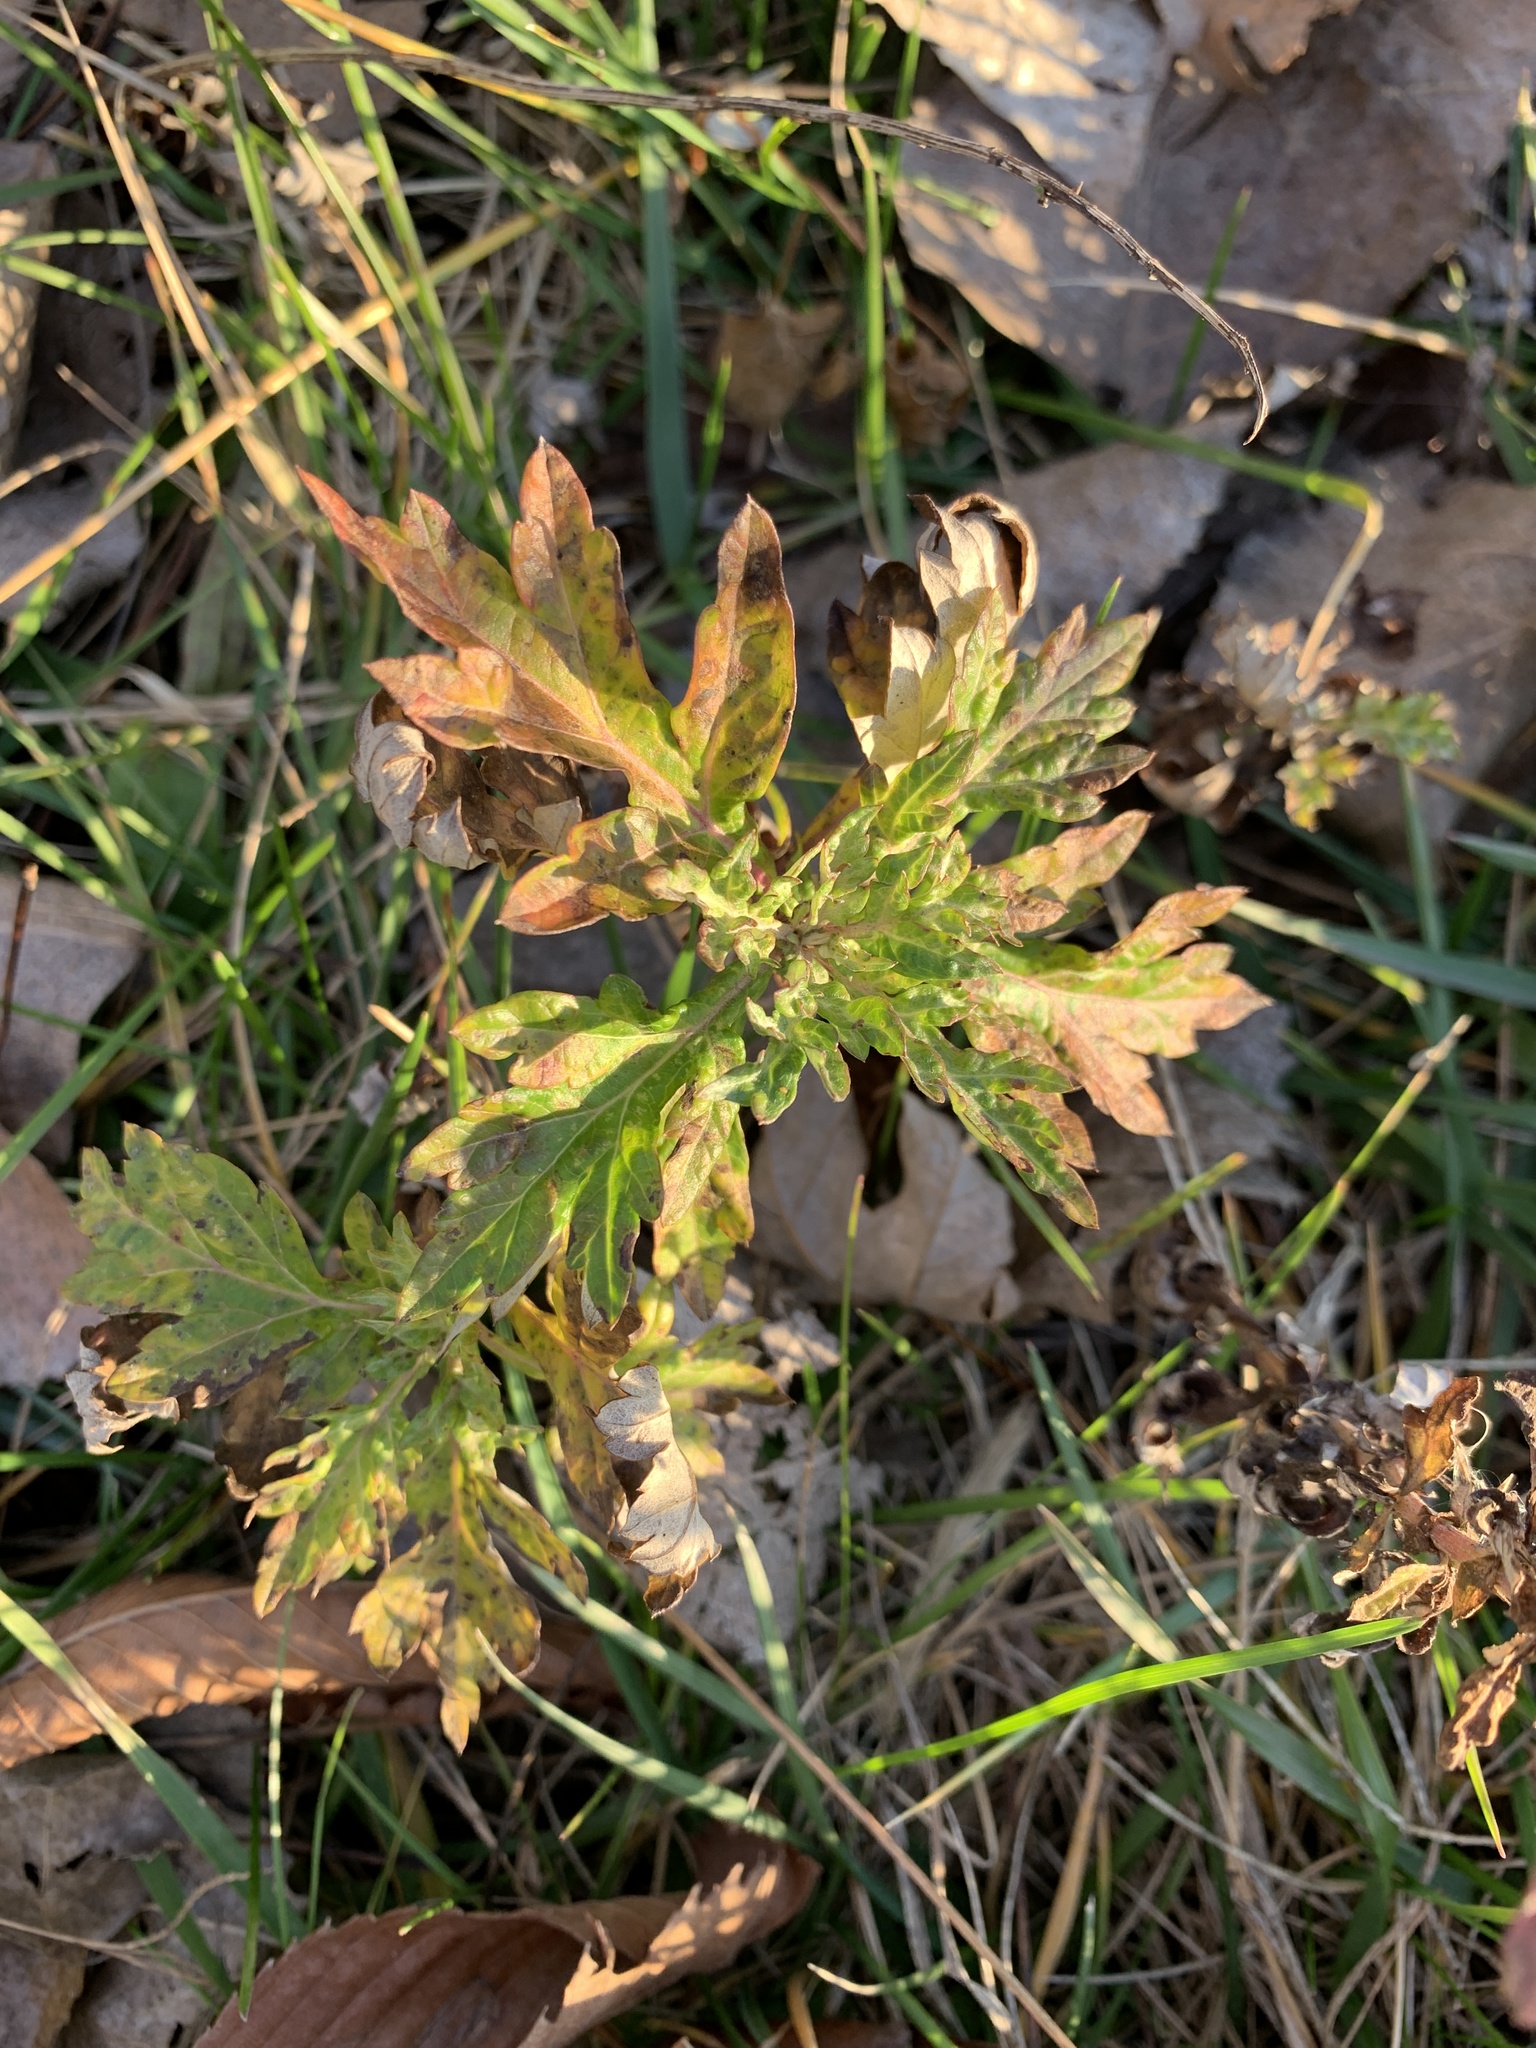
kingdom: Plantae
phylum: Tracheophyta
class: Magnoliopsida
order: Asterales
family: Asteraceae
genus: Artemisia
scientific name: Artemisia vulgaris
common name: Mugwort
